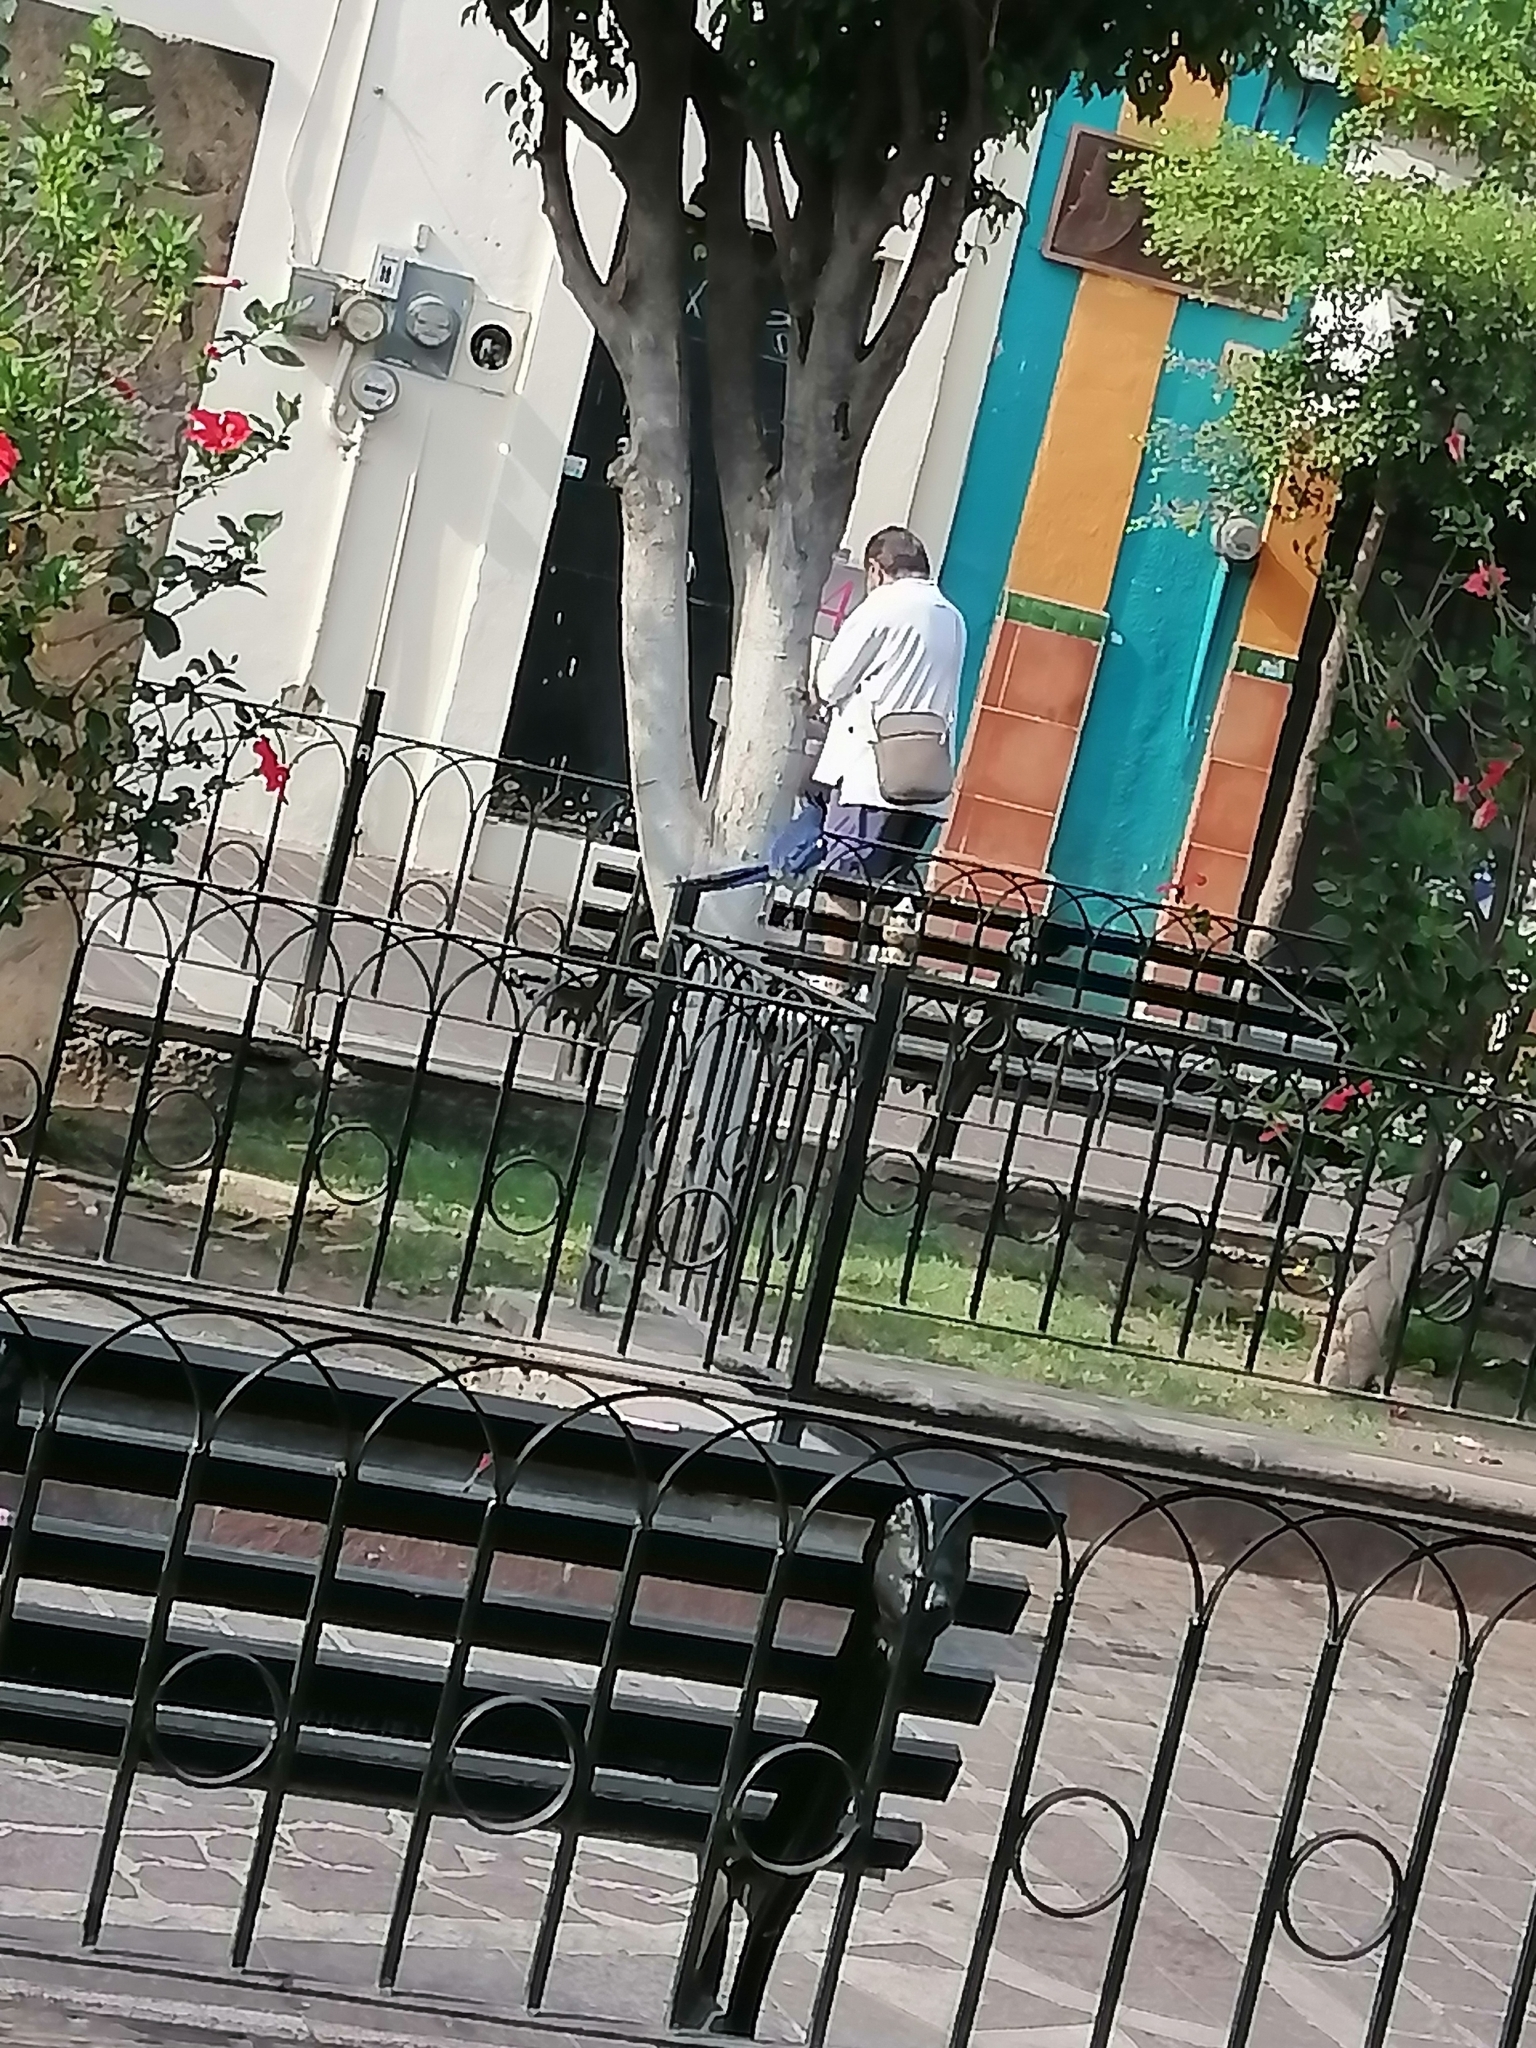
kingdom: Animalia
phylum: Chordata
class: Aves
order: Passeriformes
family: Corvidae
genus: Calocitta
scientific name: Calocitta colliei
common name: Black-throated magpie-jay
